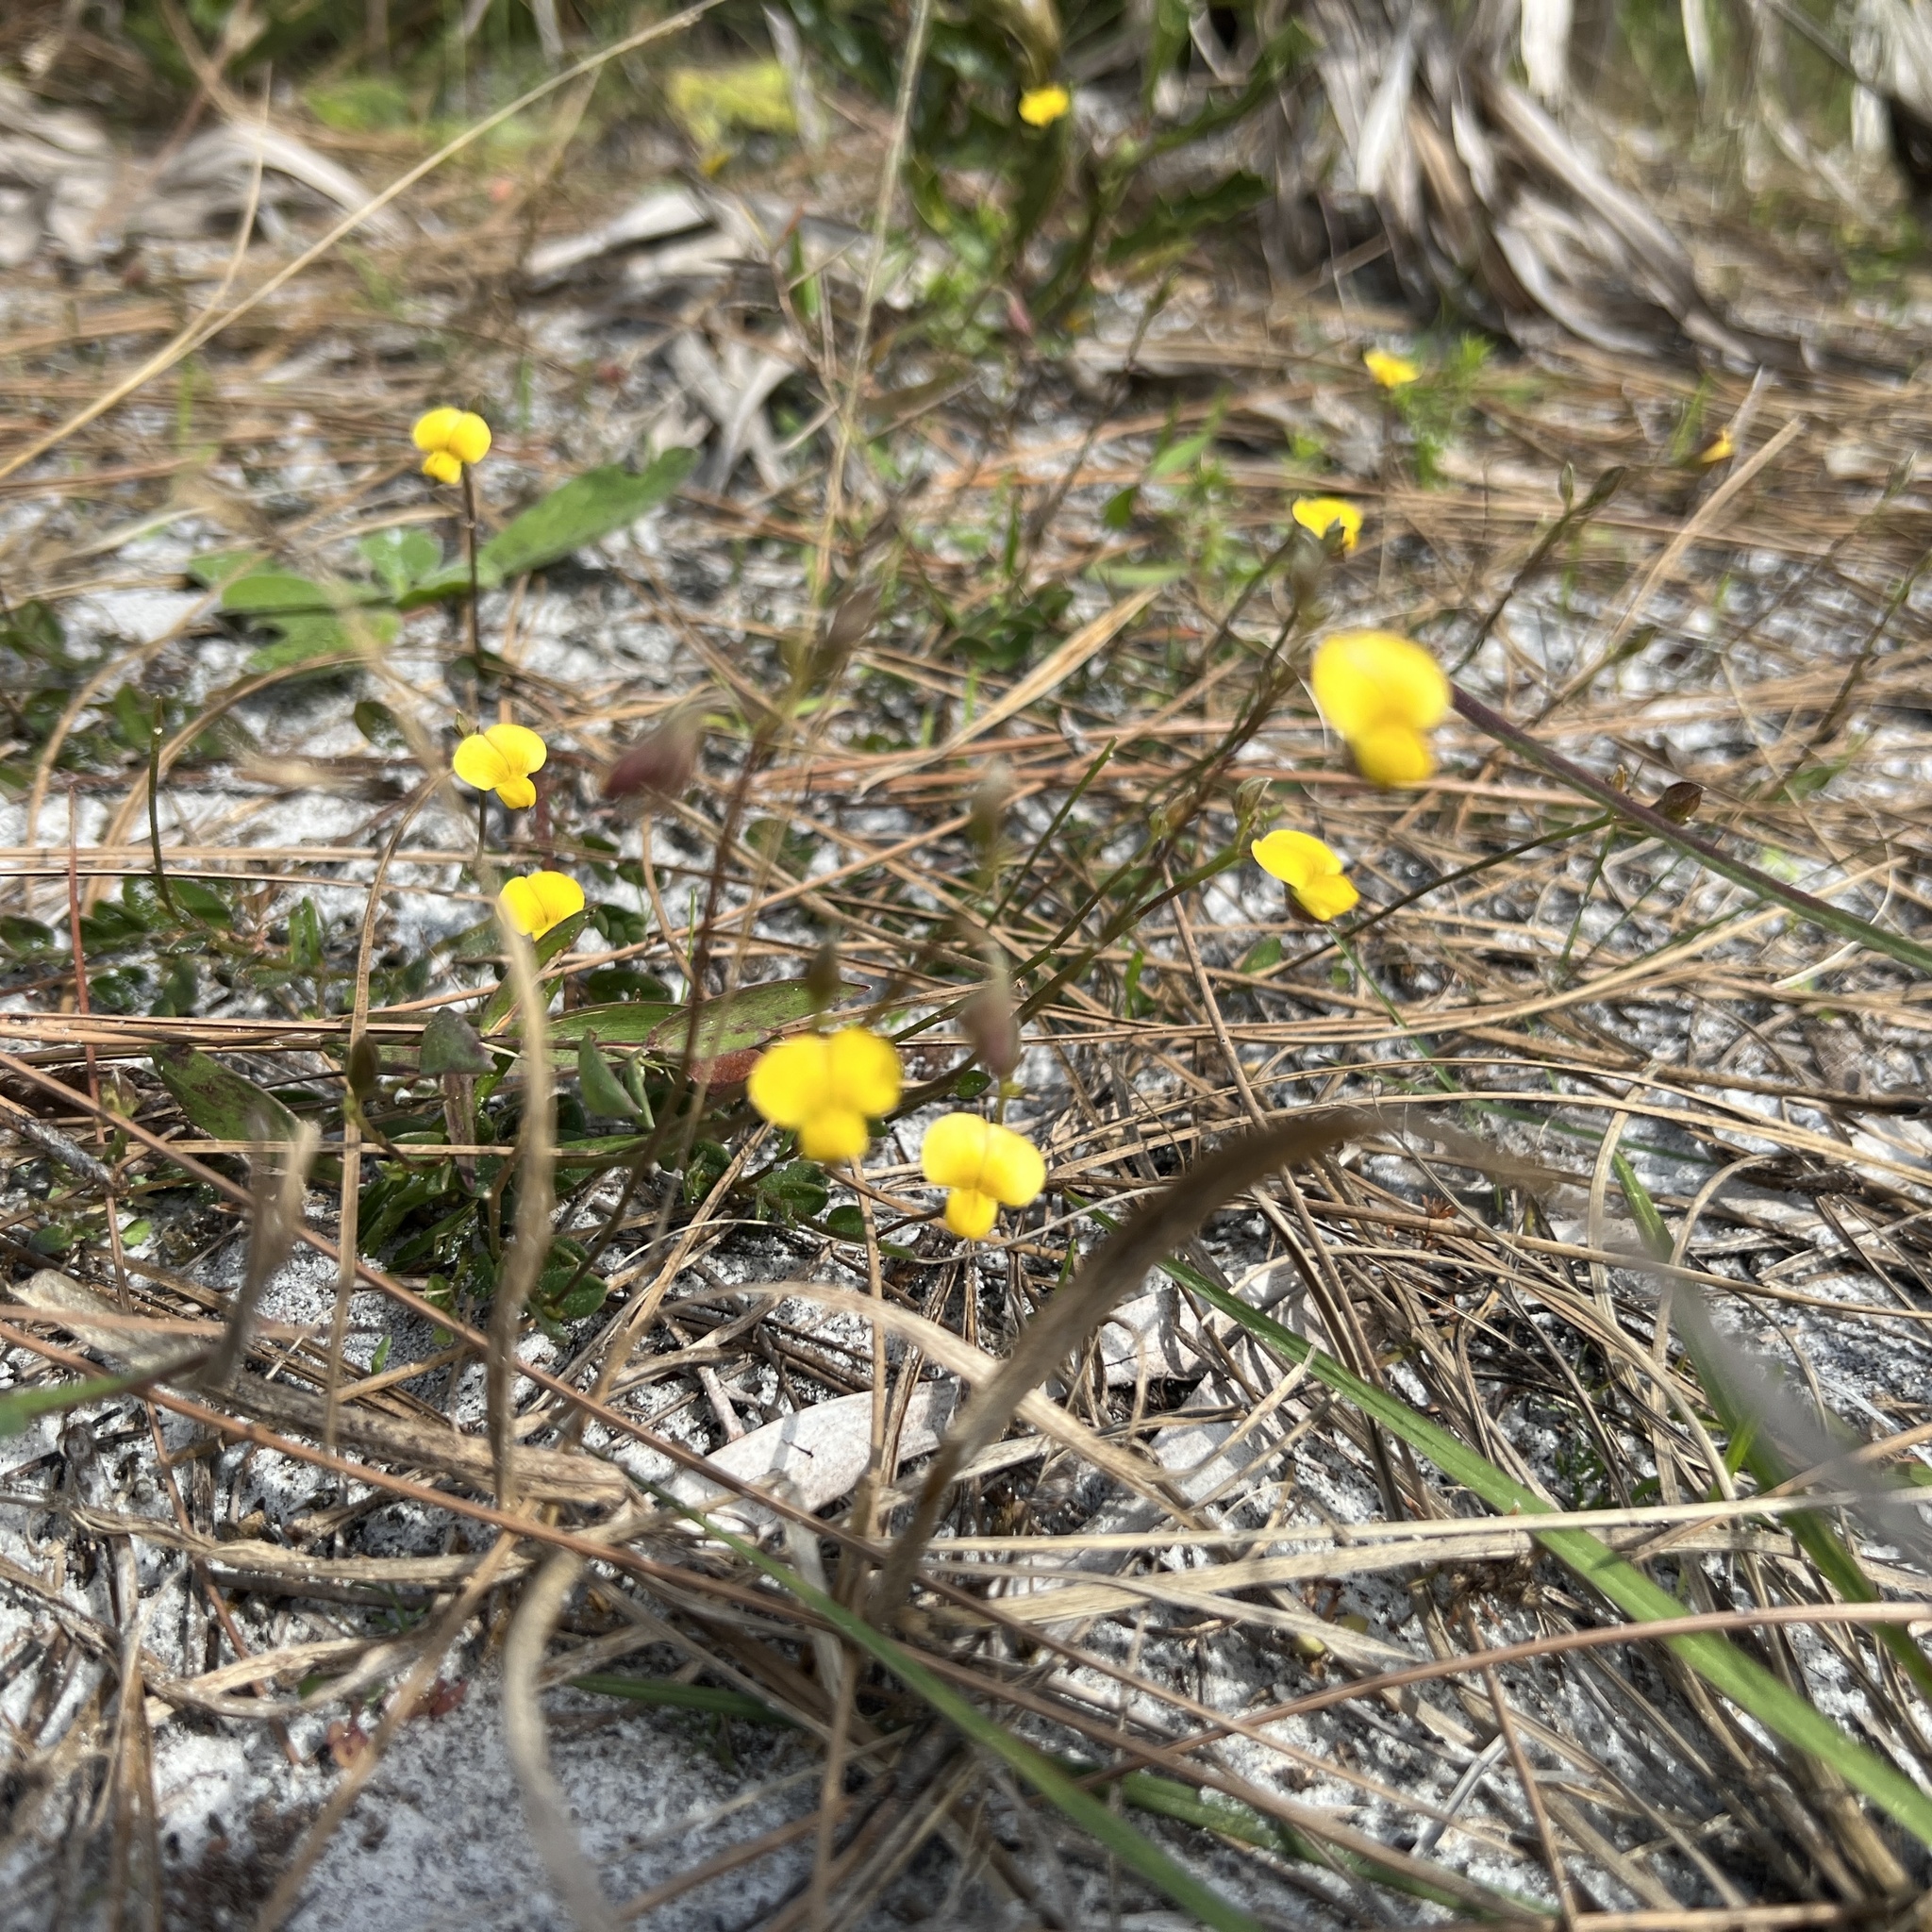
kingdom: Plantae
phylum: Tracheophyta
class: Magnoliopsida
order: Fabales
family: Fabaceae
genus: Crotalaria
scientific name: Crotalaria rotundifolia
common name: Prostrate rattlebox
